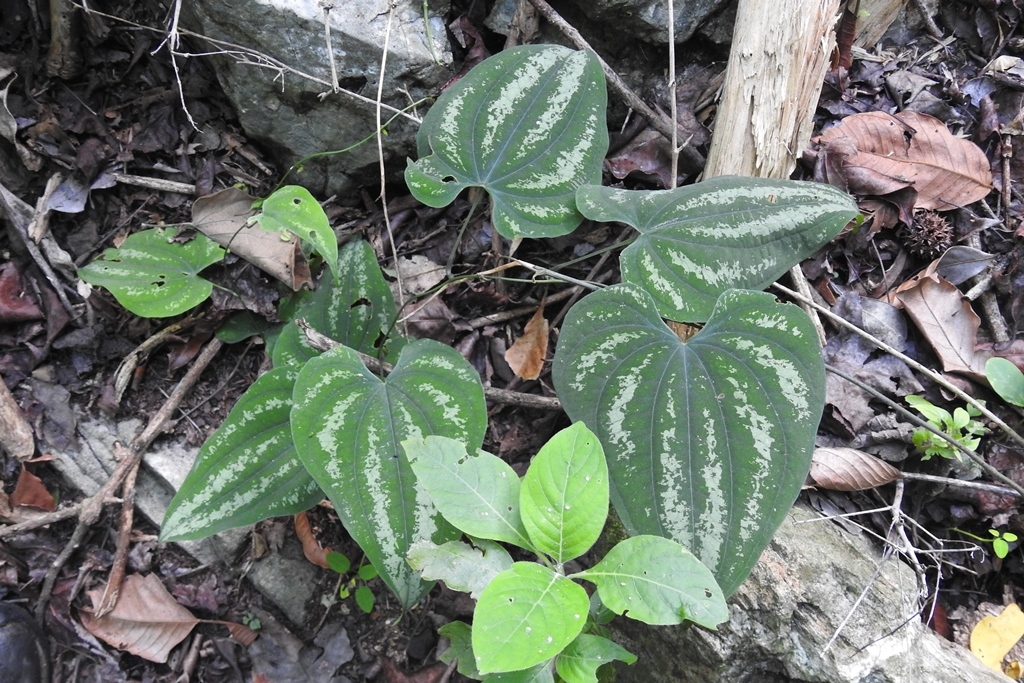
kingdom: Plantae
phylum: Tracheophyta
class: Liliopsida
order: Dioscoreales
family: Dioscoreaceae
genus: Dioscorea
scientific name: Dioscorea cyanisticta
